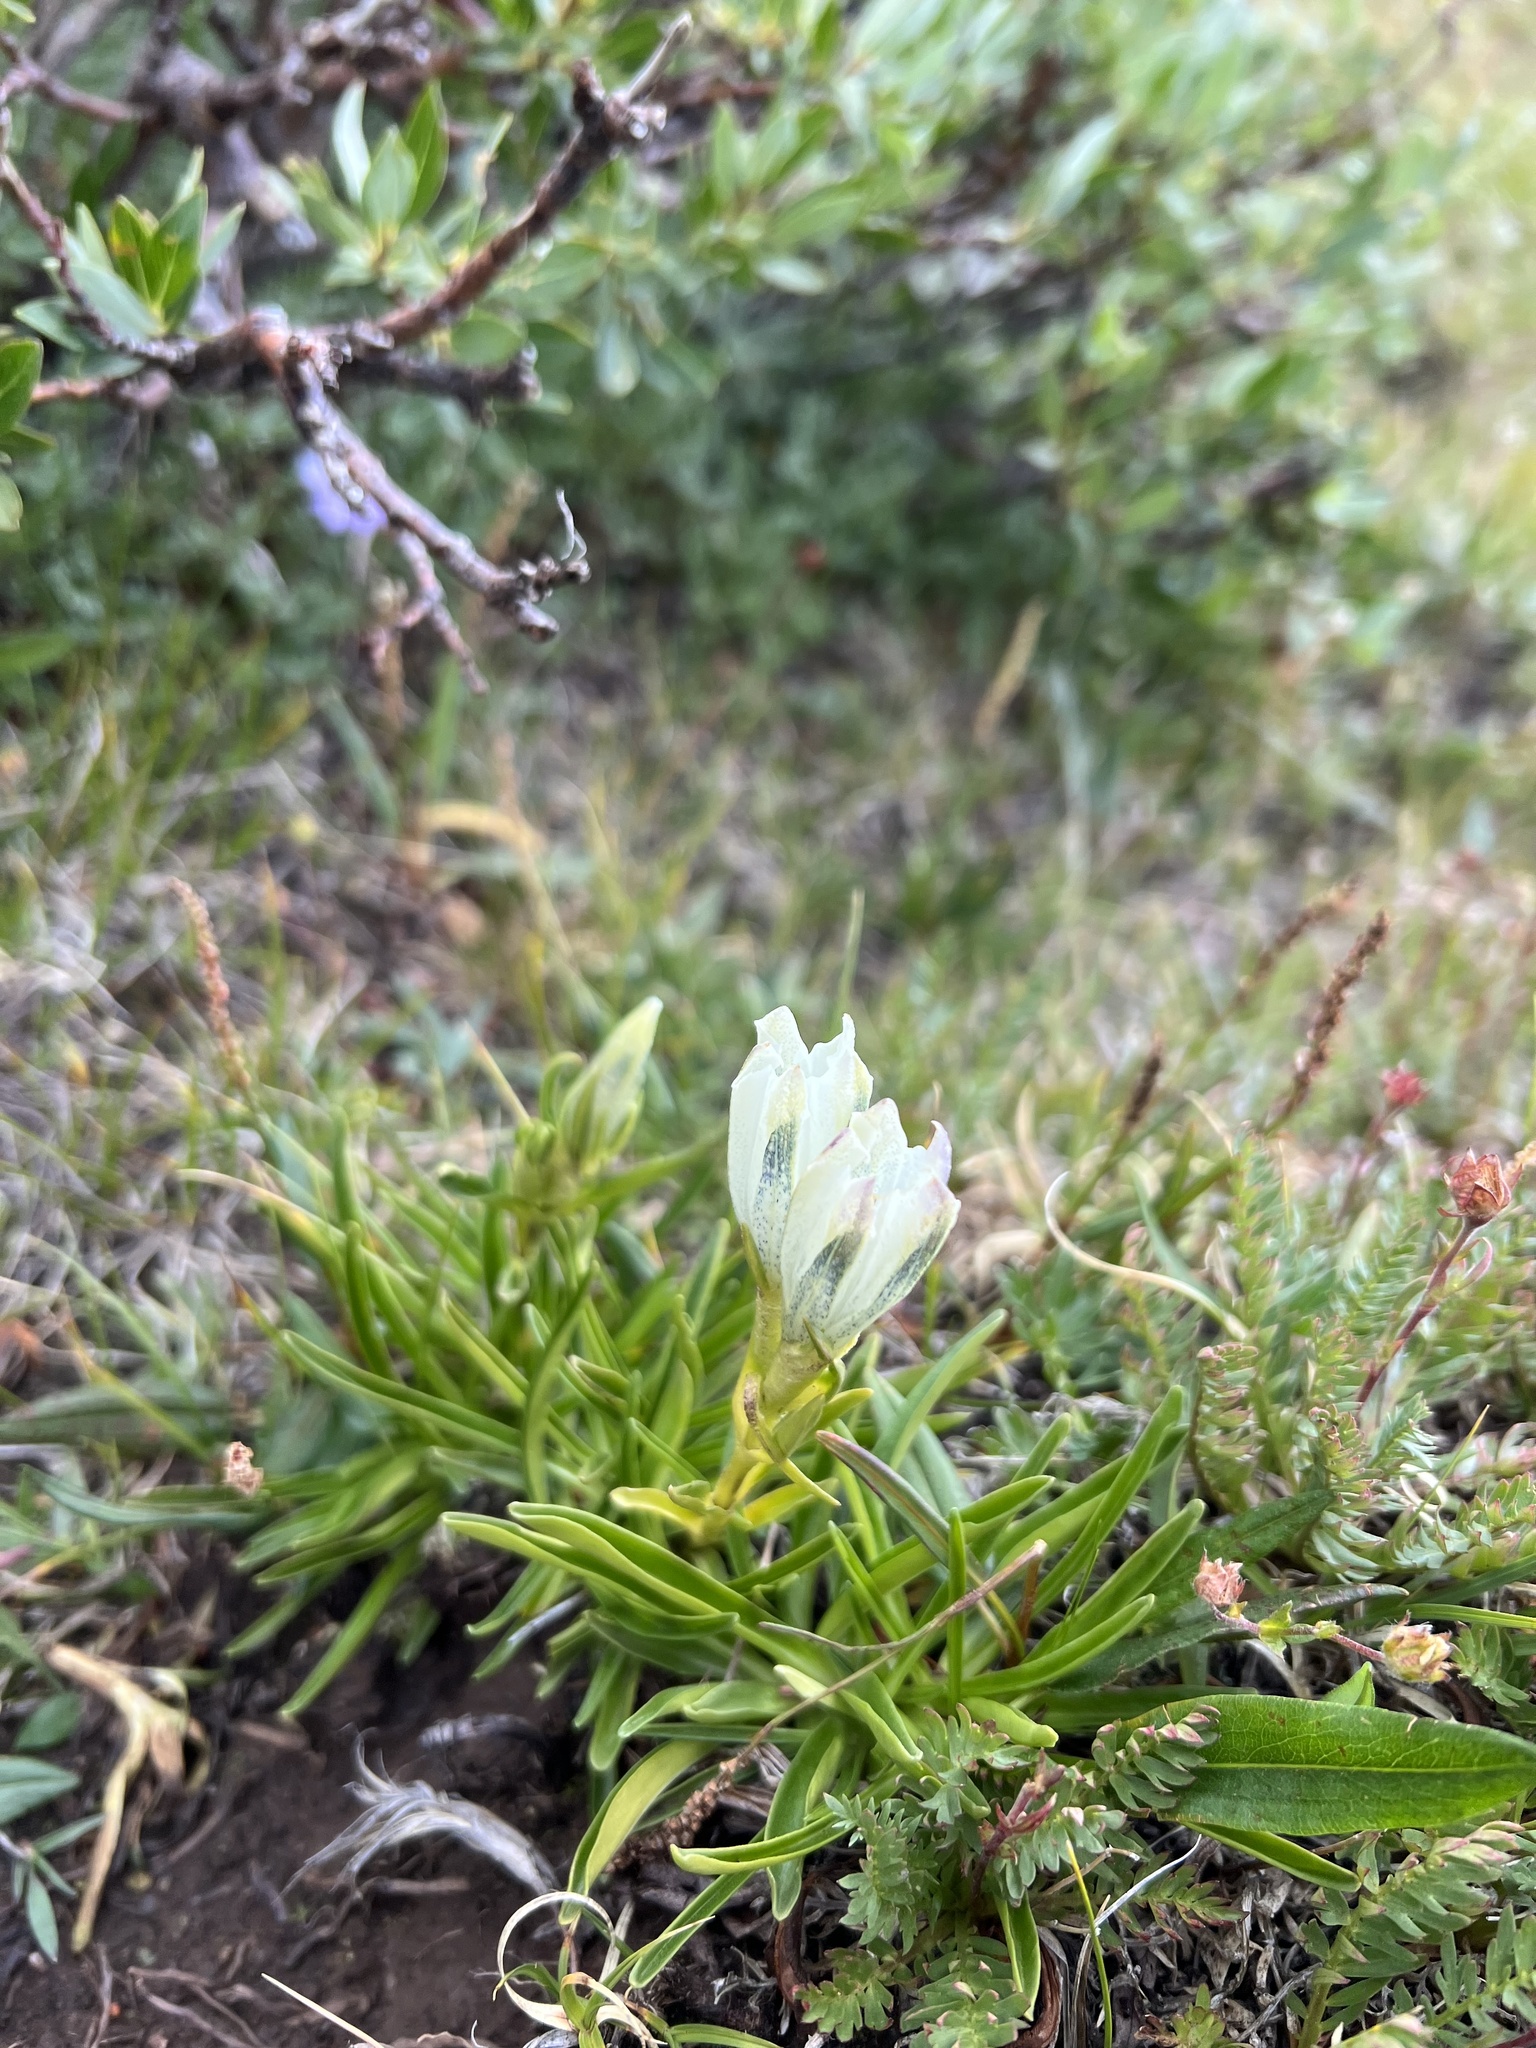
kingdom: Plantae
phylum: Tracheophyta
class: Magnoliopsida
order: Gentianales
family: Gentianaceae
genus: Gentiana
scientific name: Gentiana algida
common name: Arctic gentian
